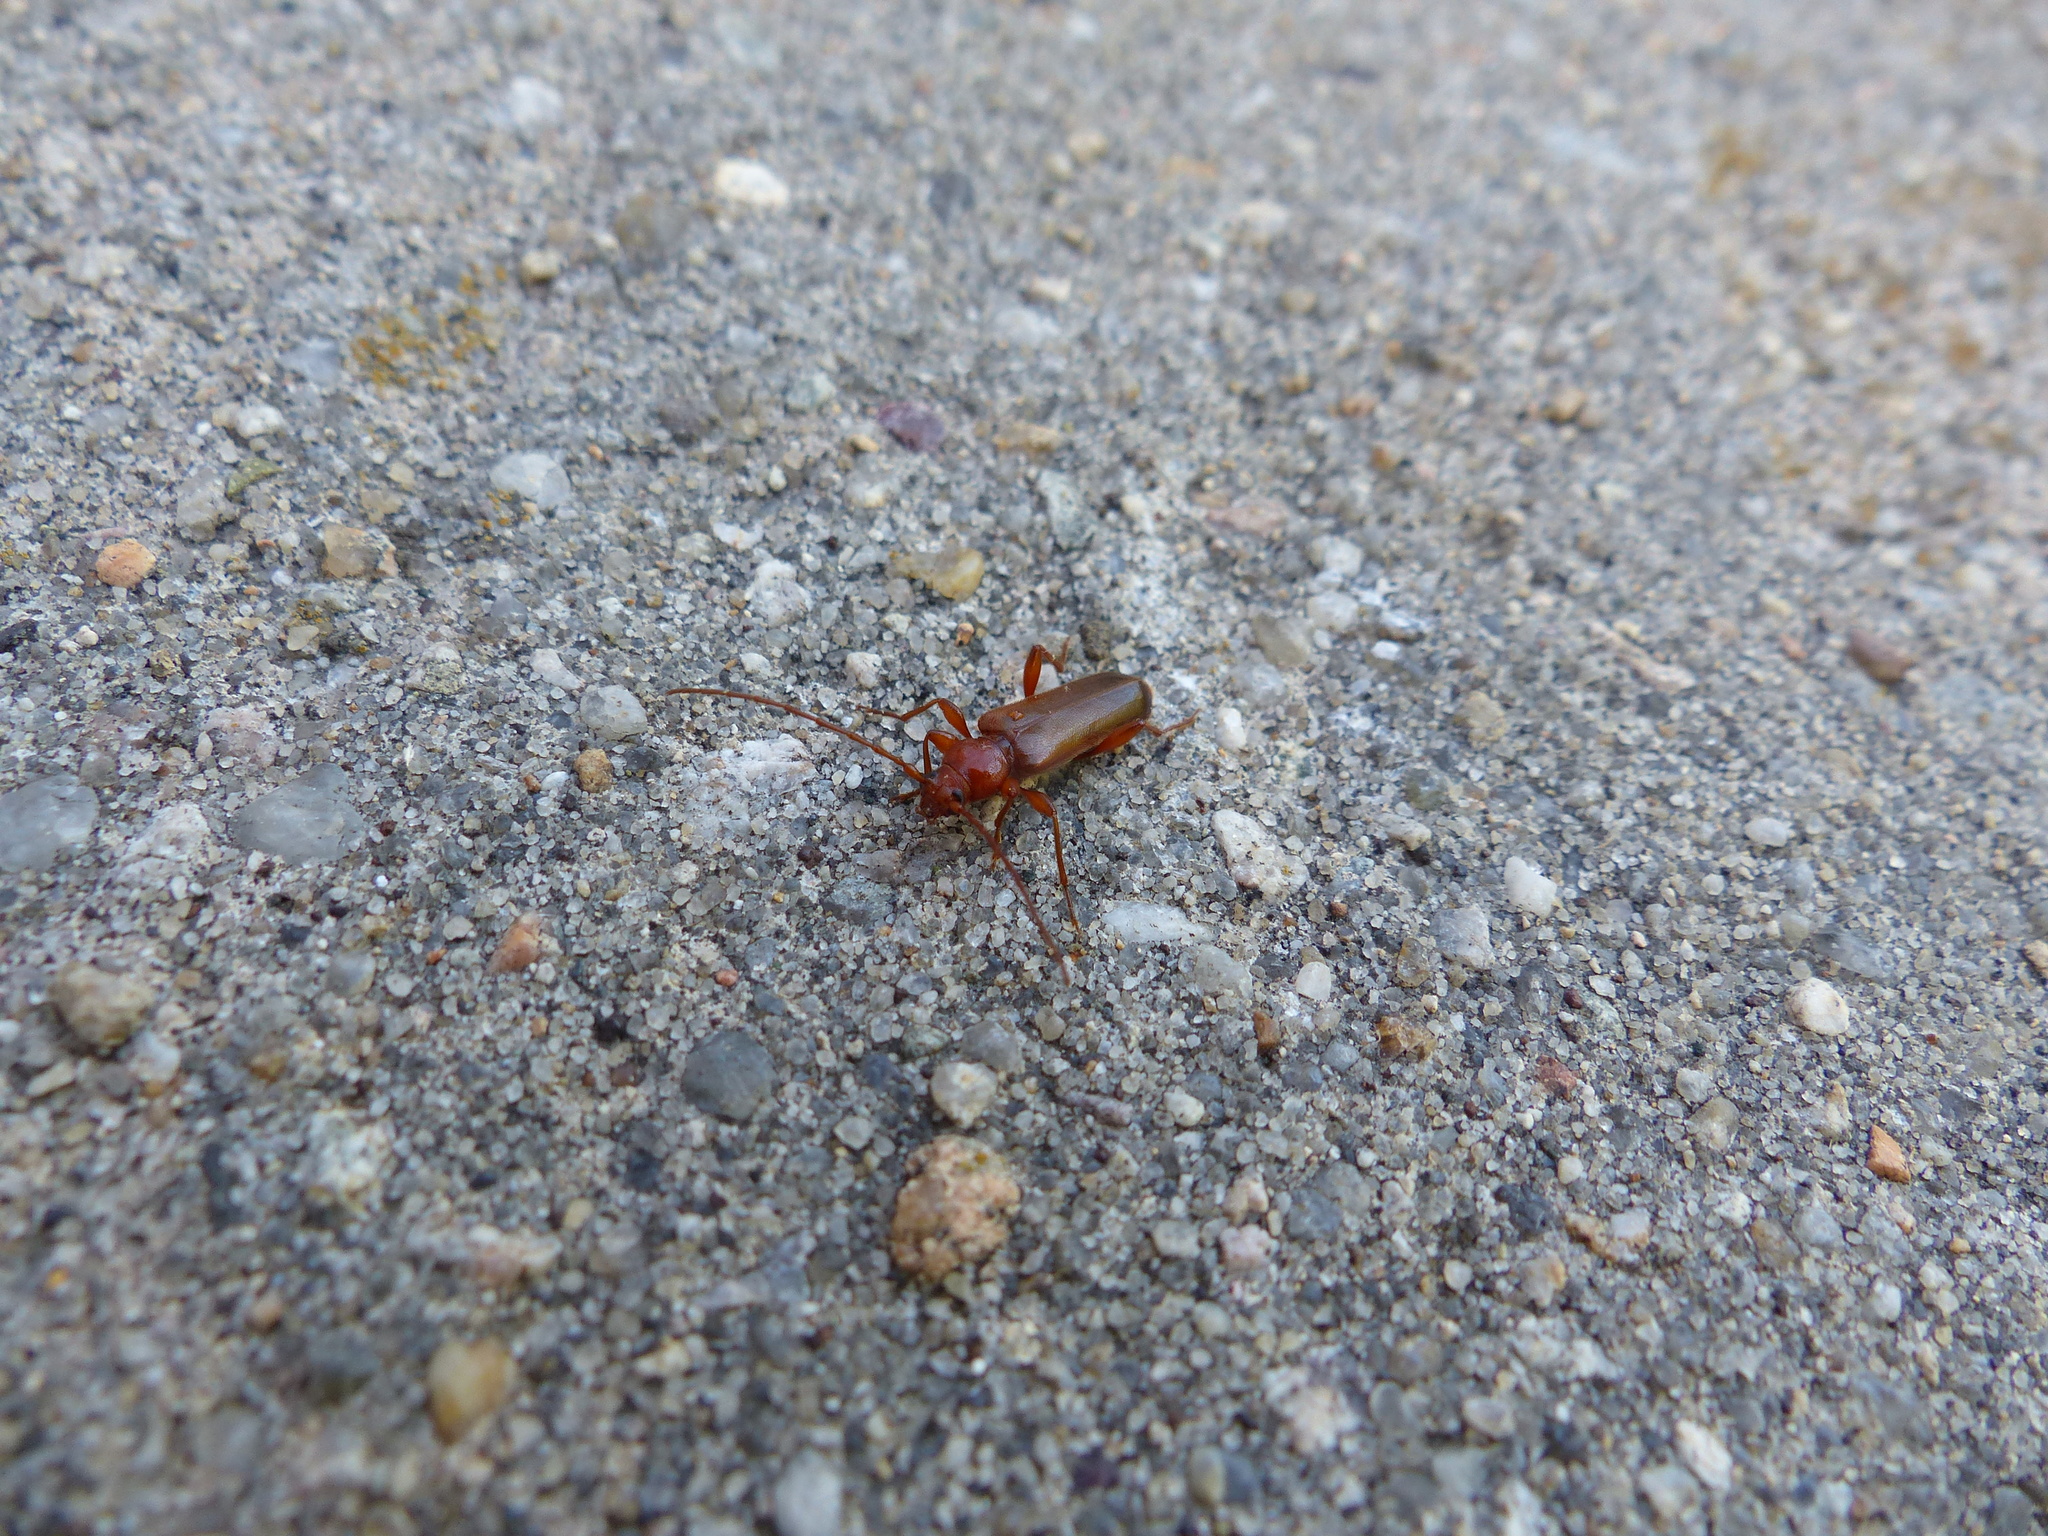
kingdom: Animalia
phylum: Arthropoda
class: Insecta
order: Coleoptera
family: Cerambycidae
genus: Phymatodes
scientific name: Phymatodes testaceus
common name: Long-horned beetle
